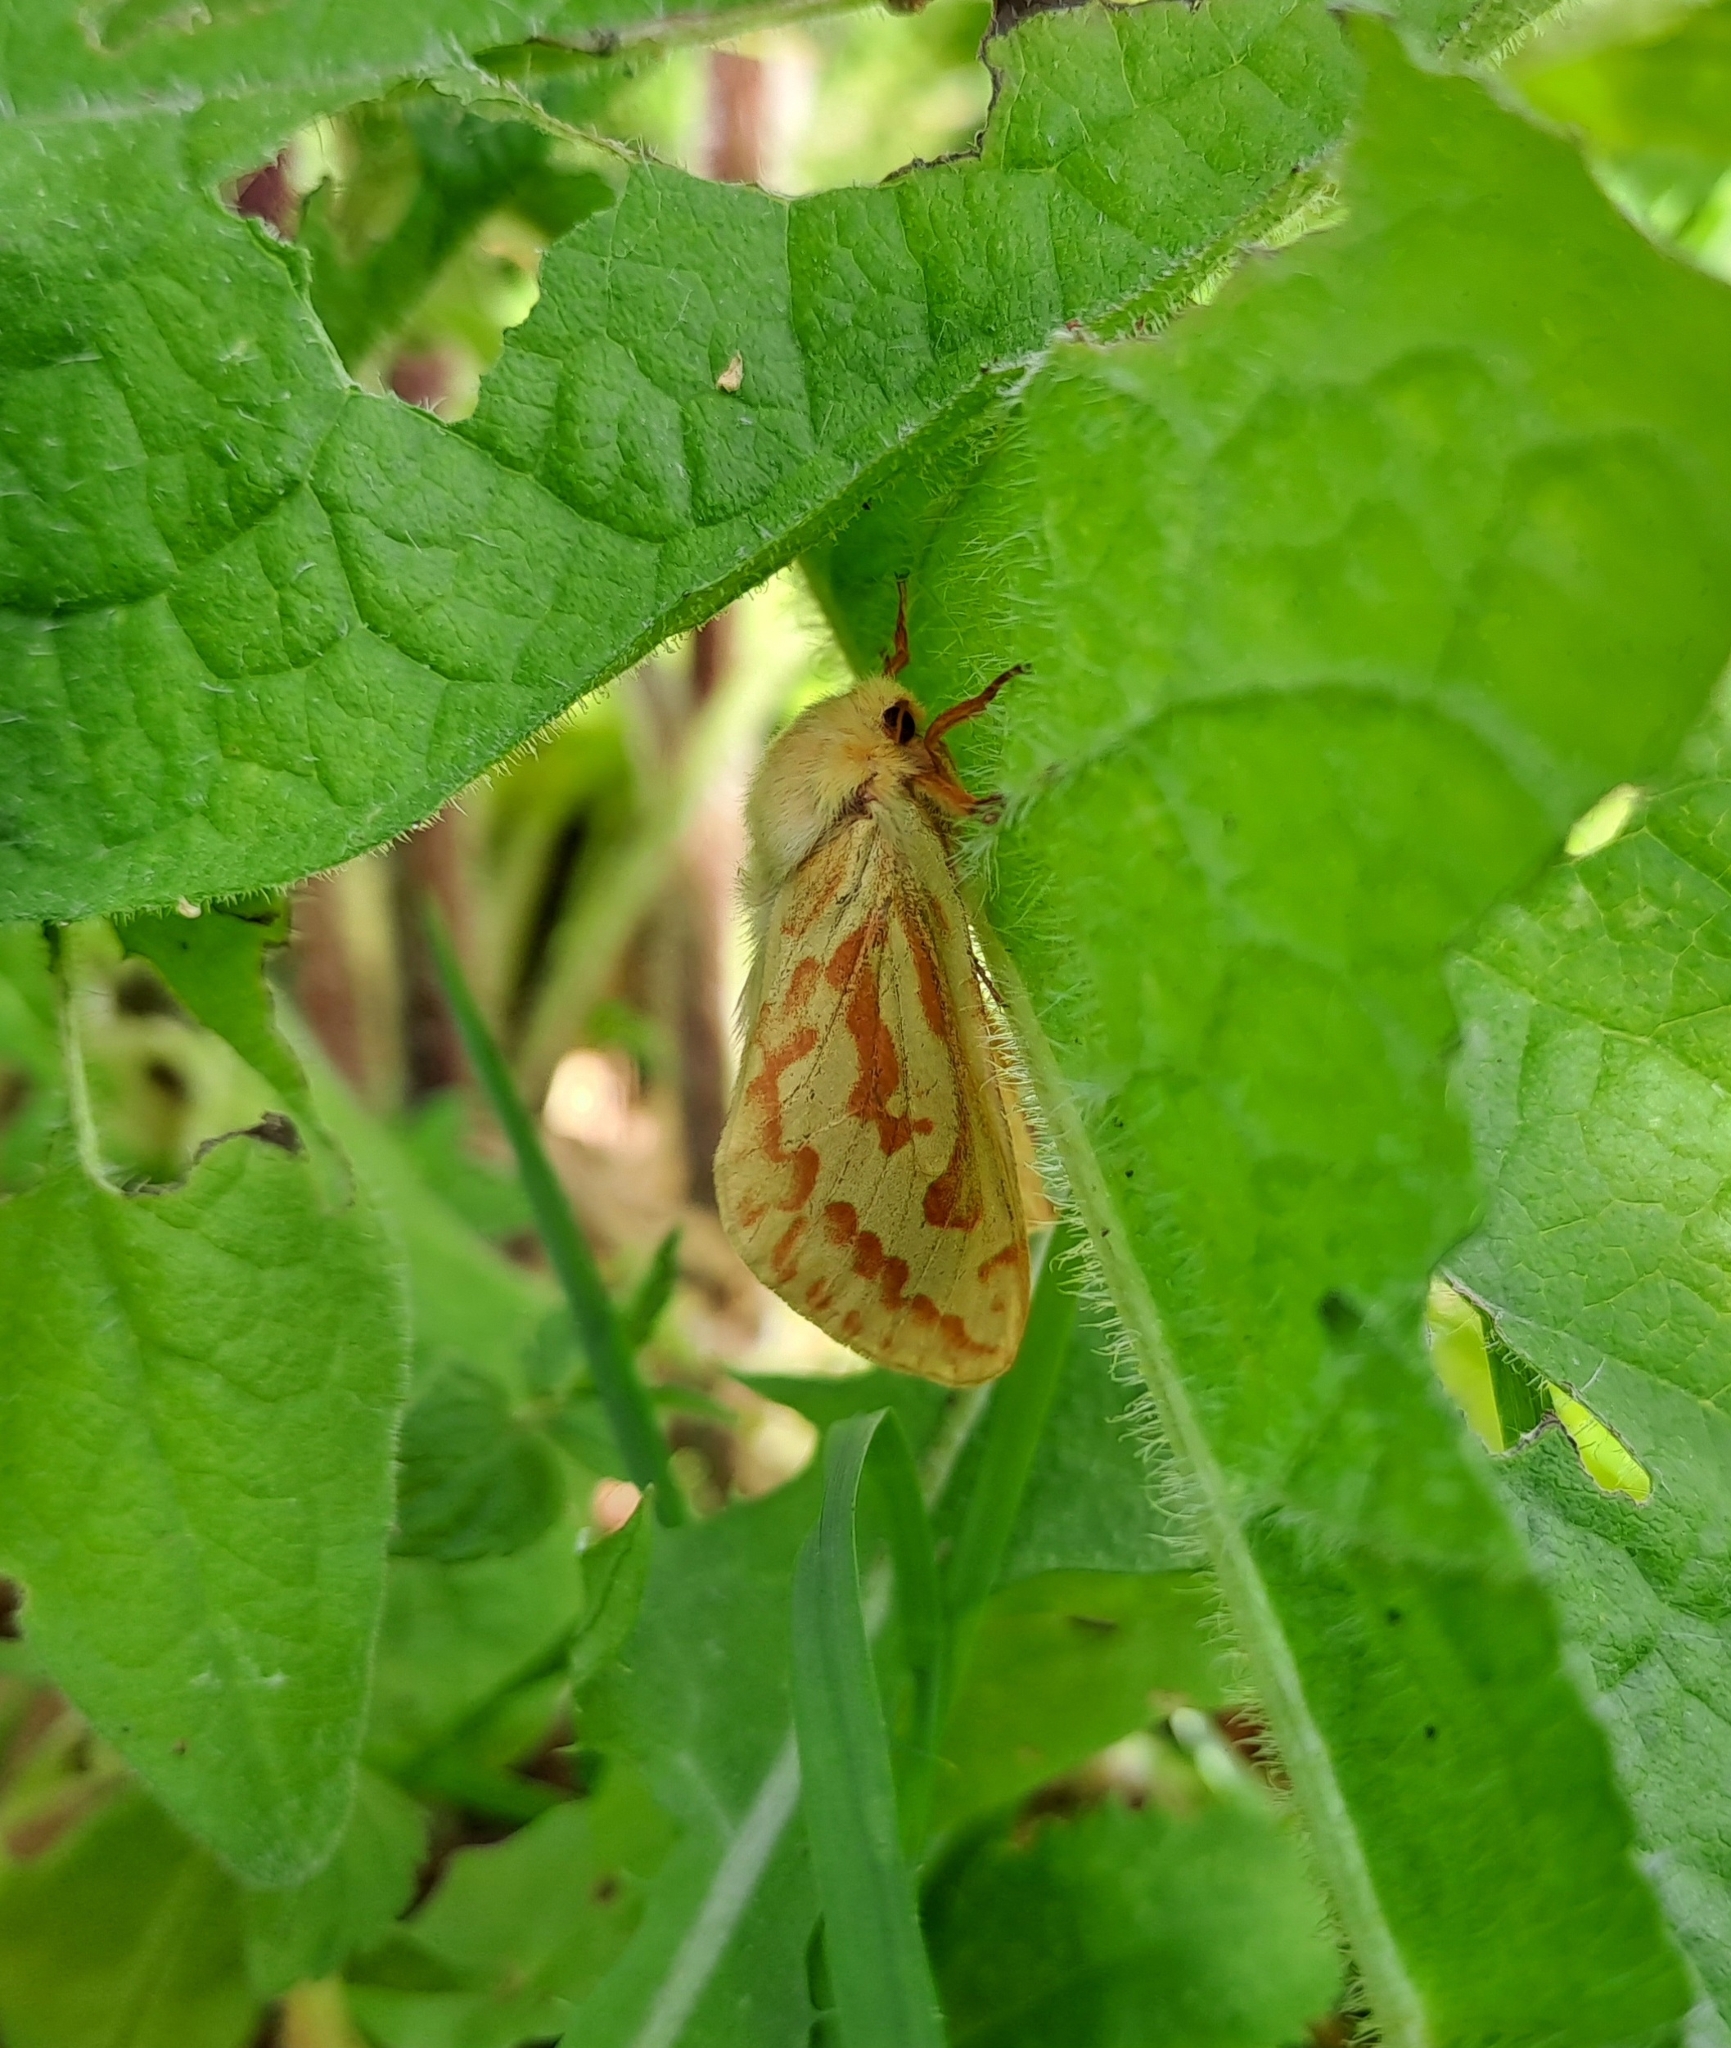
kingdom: Animalia
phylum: Arthropoda
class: Insecta
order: Lepidoptera
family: Hepialidae
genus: Hepialus
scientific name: Hepialus humuli
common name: Ghost moth
